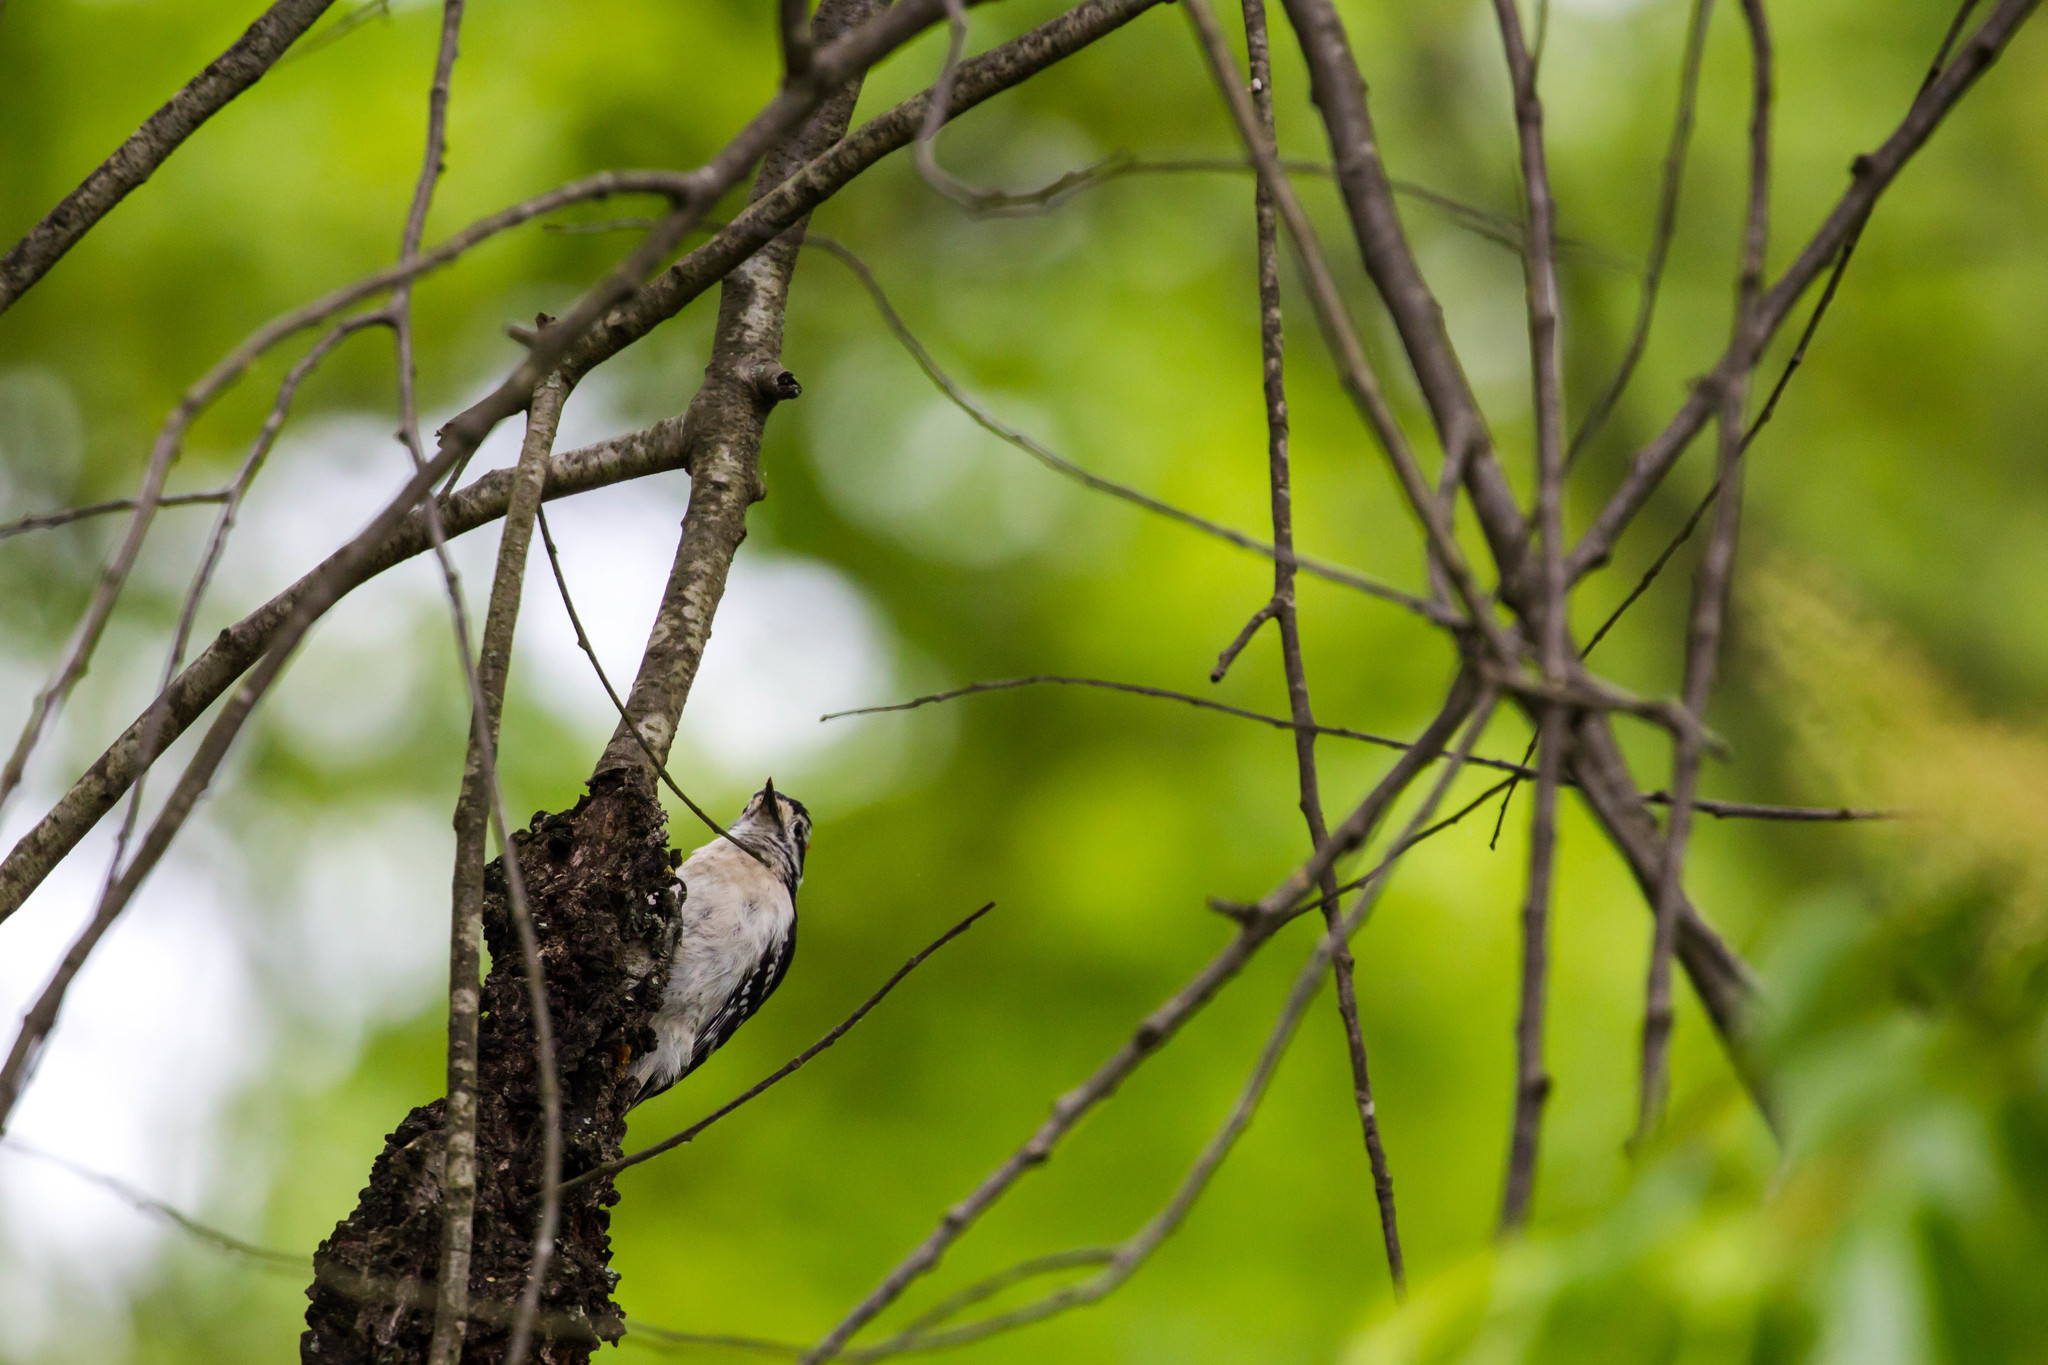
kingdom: Animalia
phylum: Chordata
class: Aves
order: Piciformes
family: Picidae
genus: Dryobates
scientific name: Dryobates pubescens
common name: Downy woodpecker
